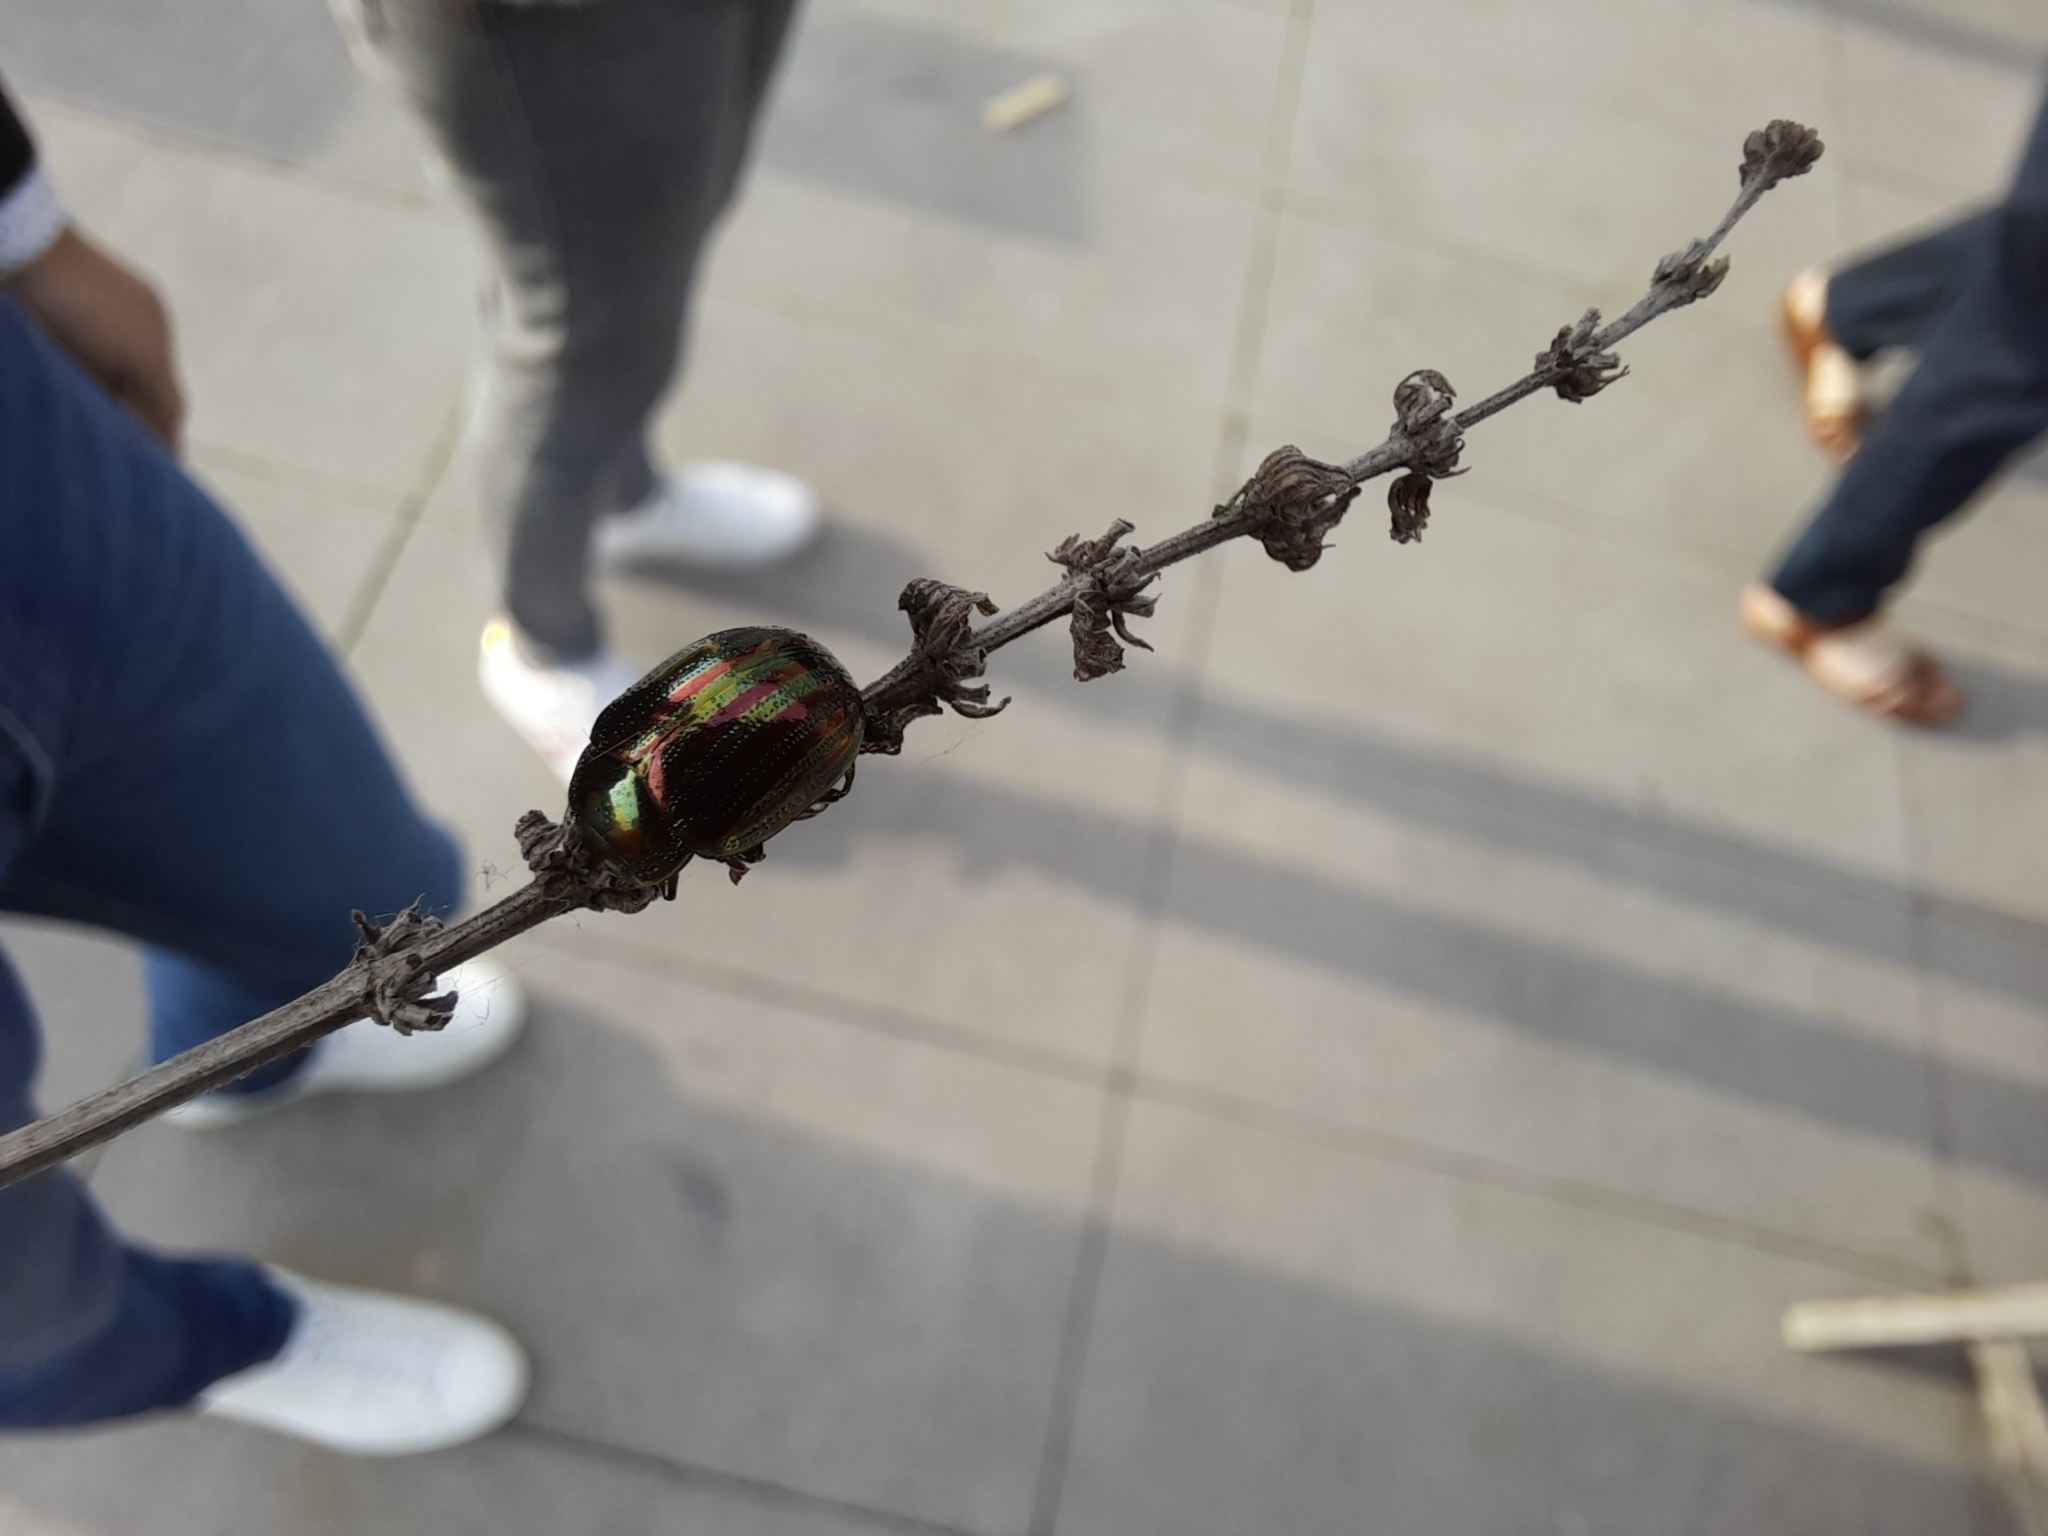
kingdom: Animalia
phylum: Arthropoda
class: Insecta
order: Coleoptera
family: Chrysomelidae
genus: Chrysolina
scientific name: Chrysolina americana
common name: Rosemary beetle
